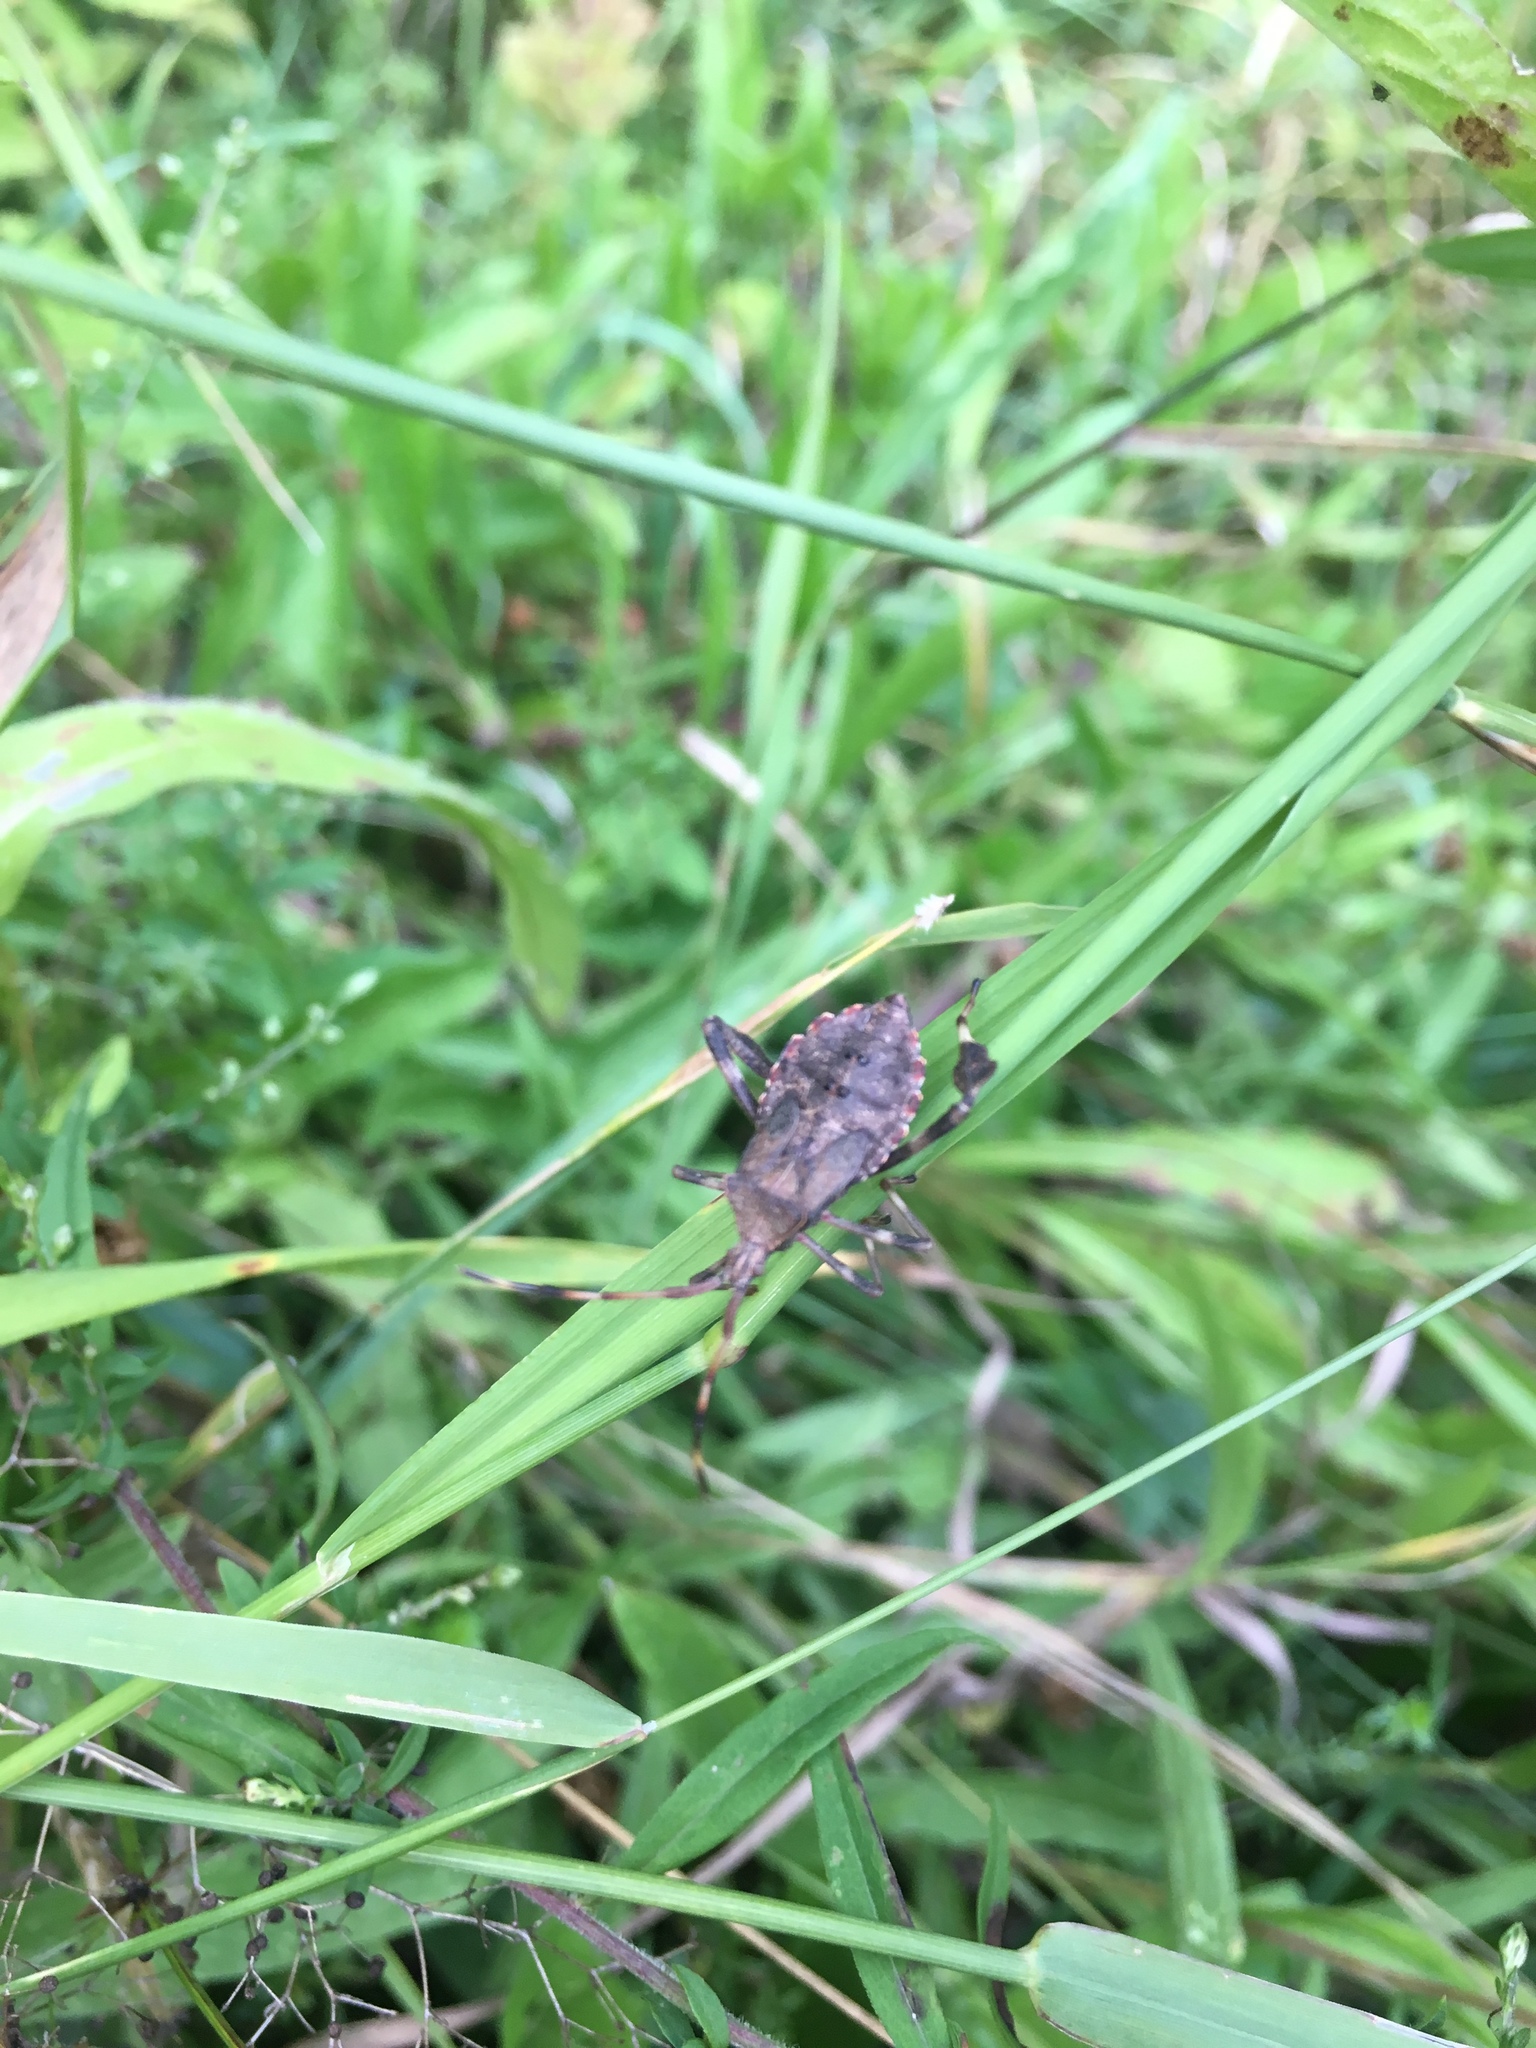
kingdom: Animalia
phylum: Arthropoda
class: Insecta
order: Hemiptera
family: Coreidae
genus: Acanthocephala
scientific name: Acanthocephala terminalis
